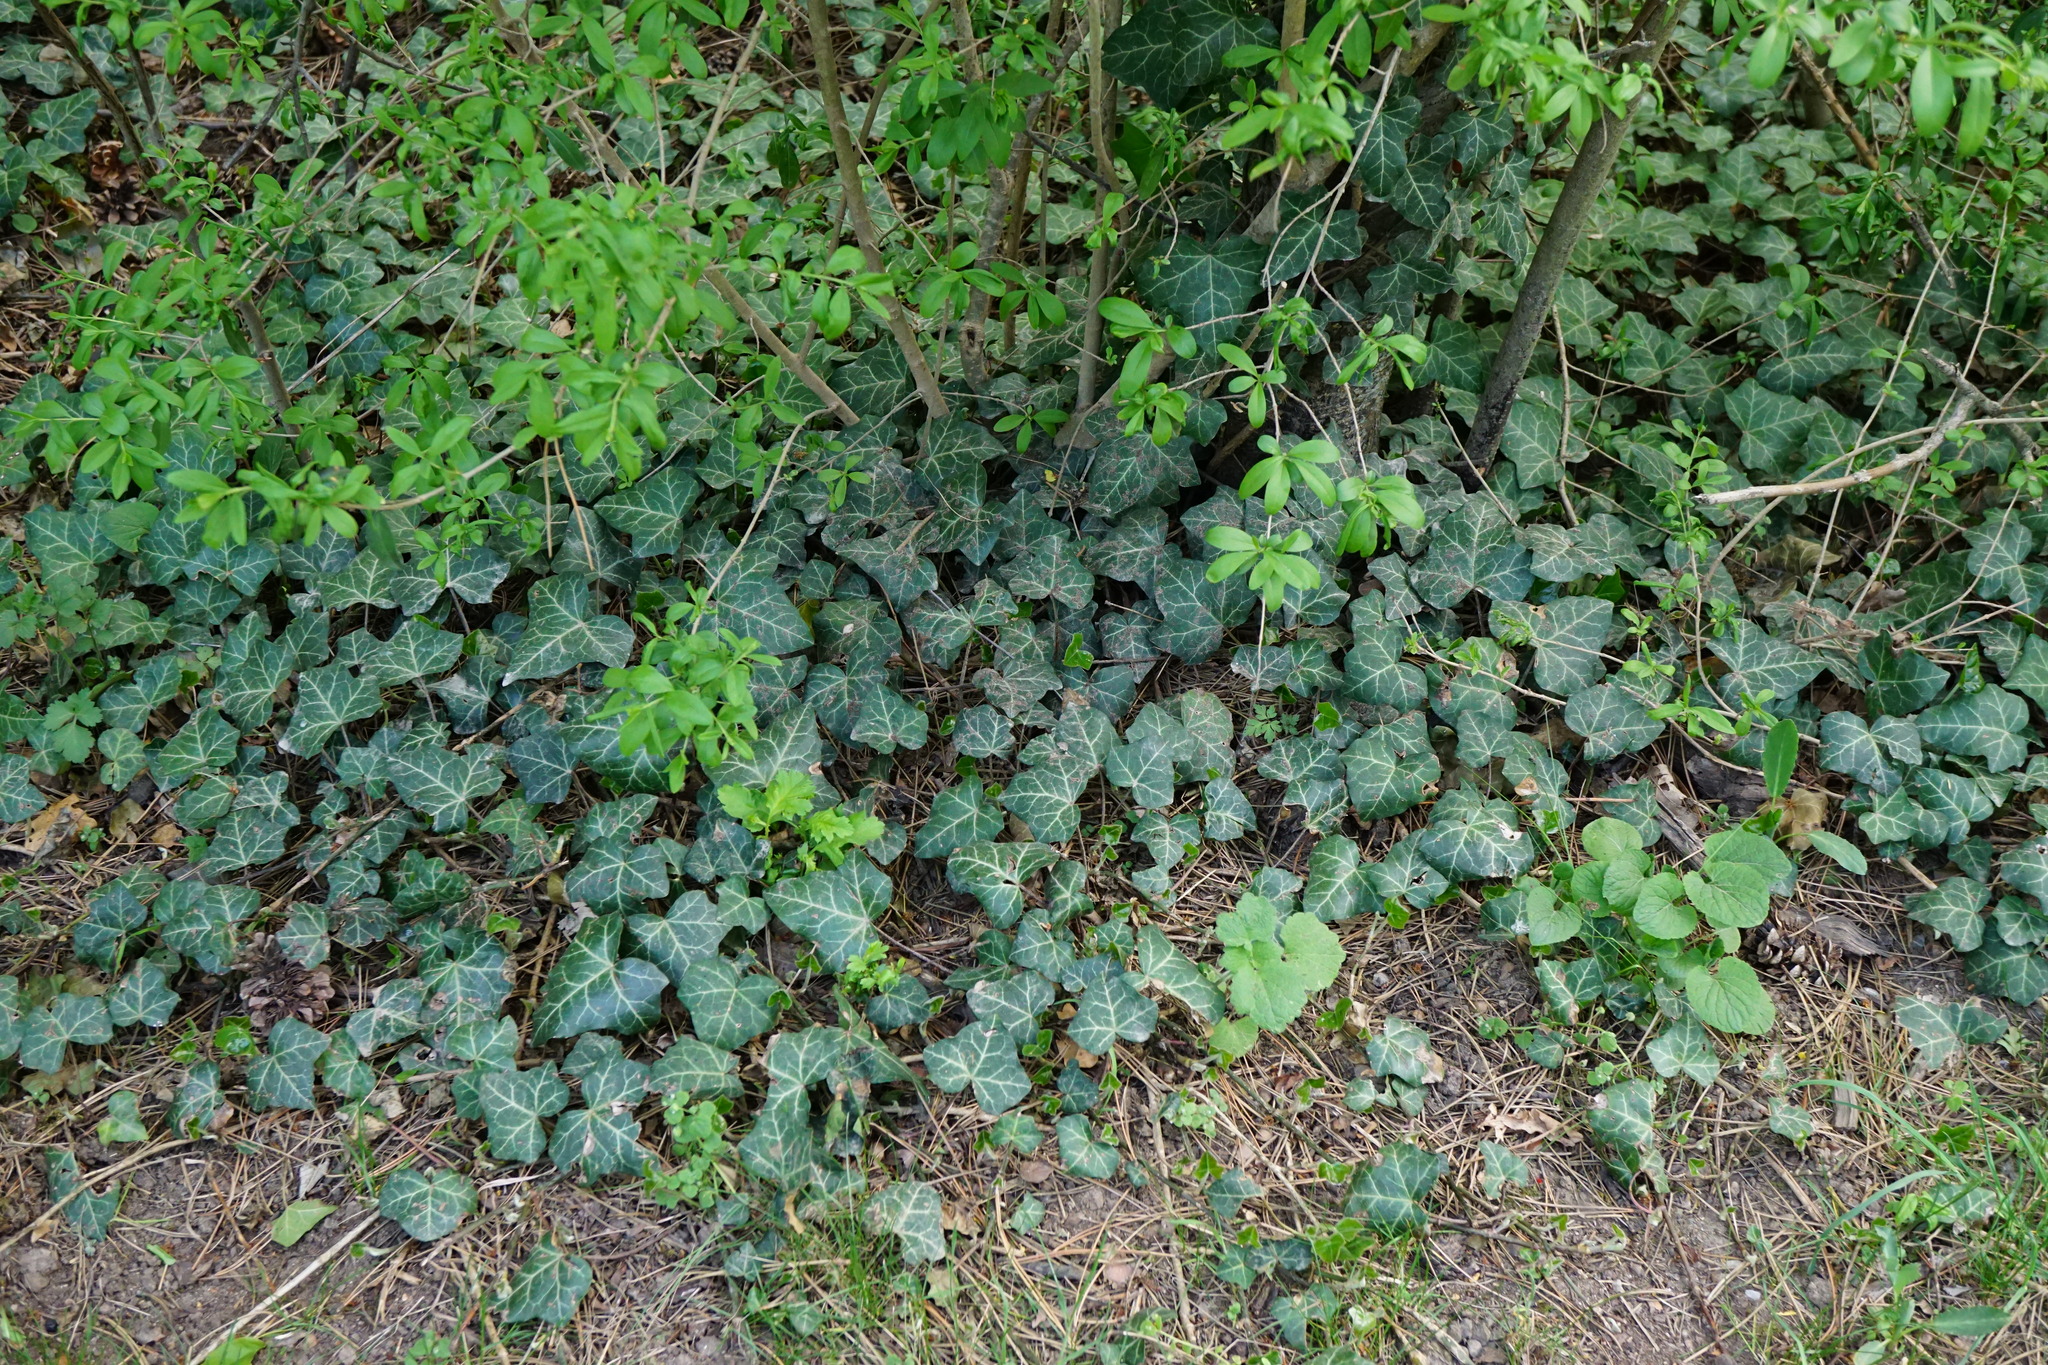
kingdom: Plantae
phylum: Tracheophyta
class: Magnoliopsida
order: Apiales
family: Araliaceae
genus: Hedera
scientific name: Hedera helix
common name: Ivy
